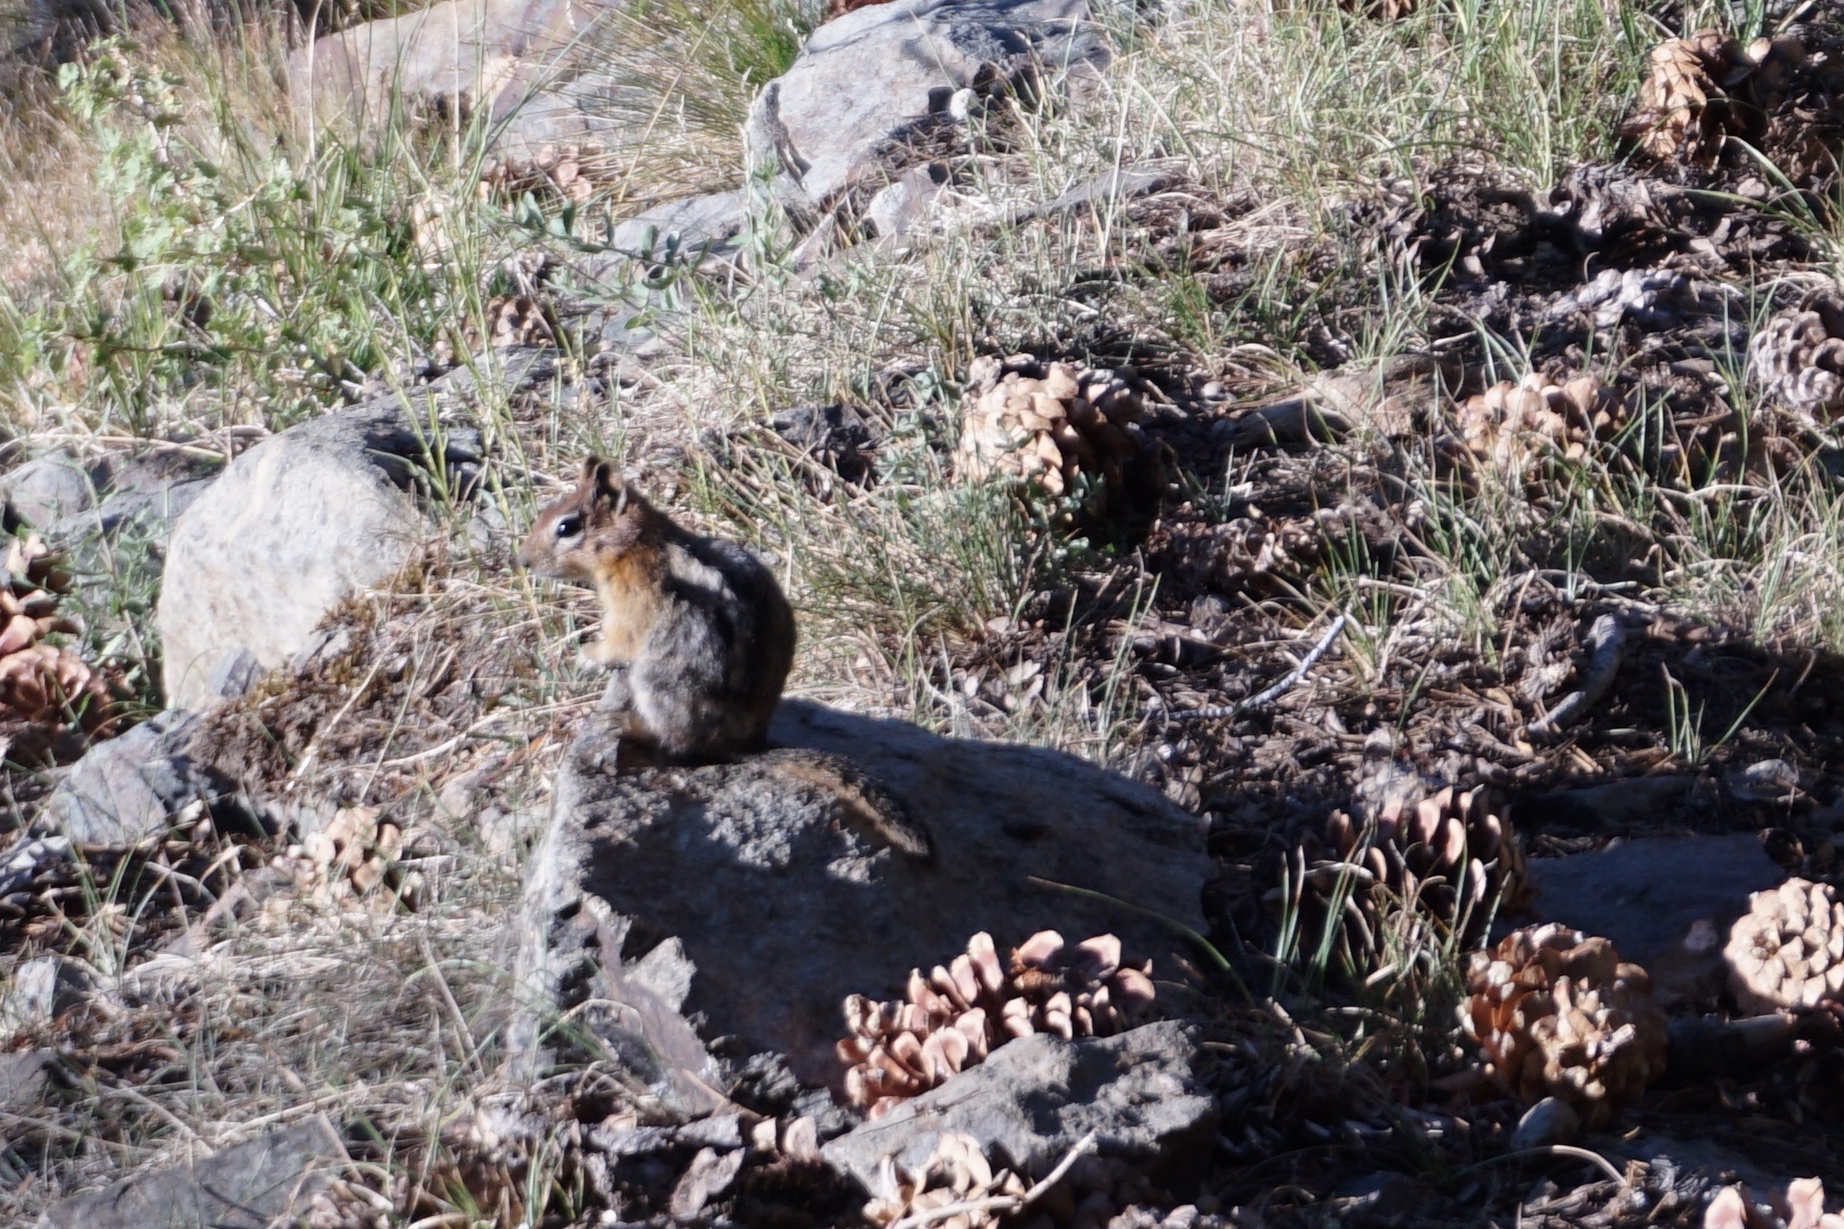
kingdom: Animalia
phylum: Chordata
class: Mammalia
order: Rodentia
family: Sciuridae
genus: Callospermophilus
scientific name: Callospermophilus lateralis
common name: Golden-mantled ground squirrel
